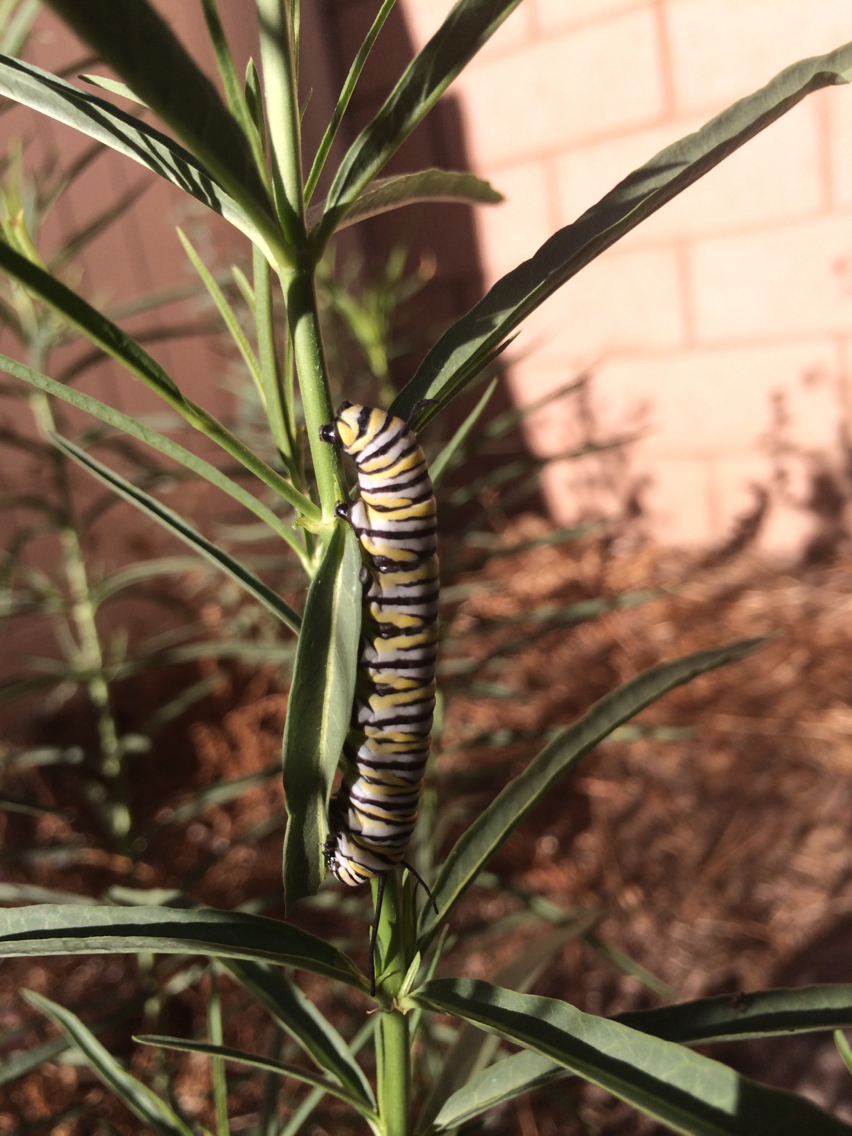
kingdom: Animalia
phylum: Arthropoda
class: Insecta
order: Lepidoptera
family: Nymphalidae
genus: Danaus
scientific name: Danaus plexippus
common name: Monarch
